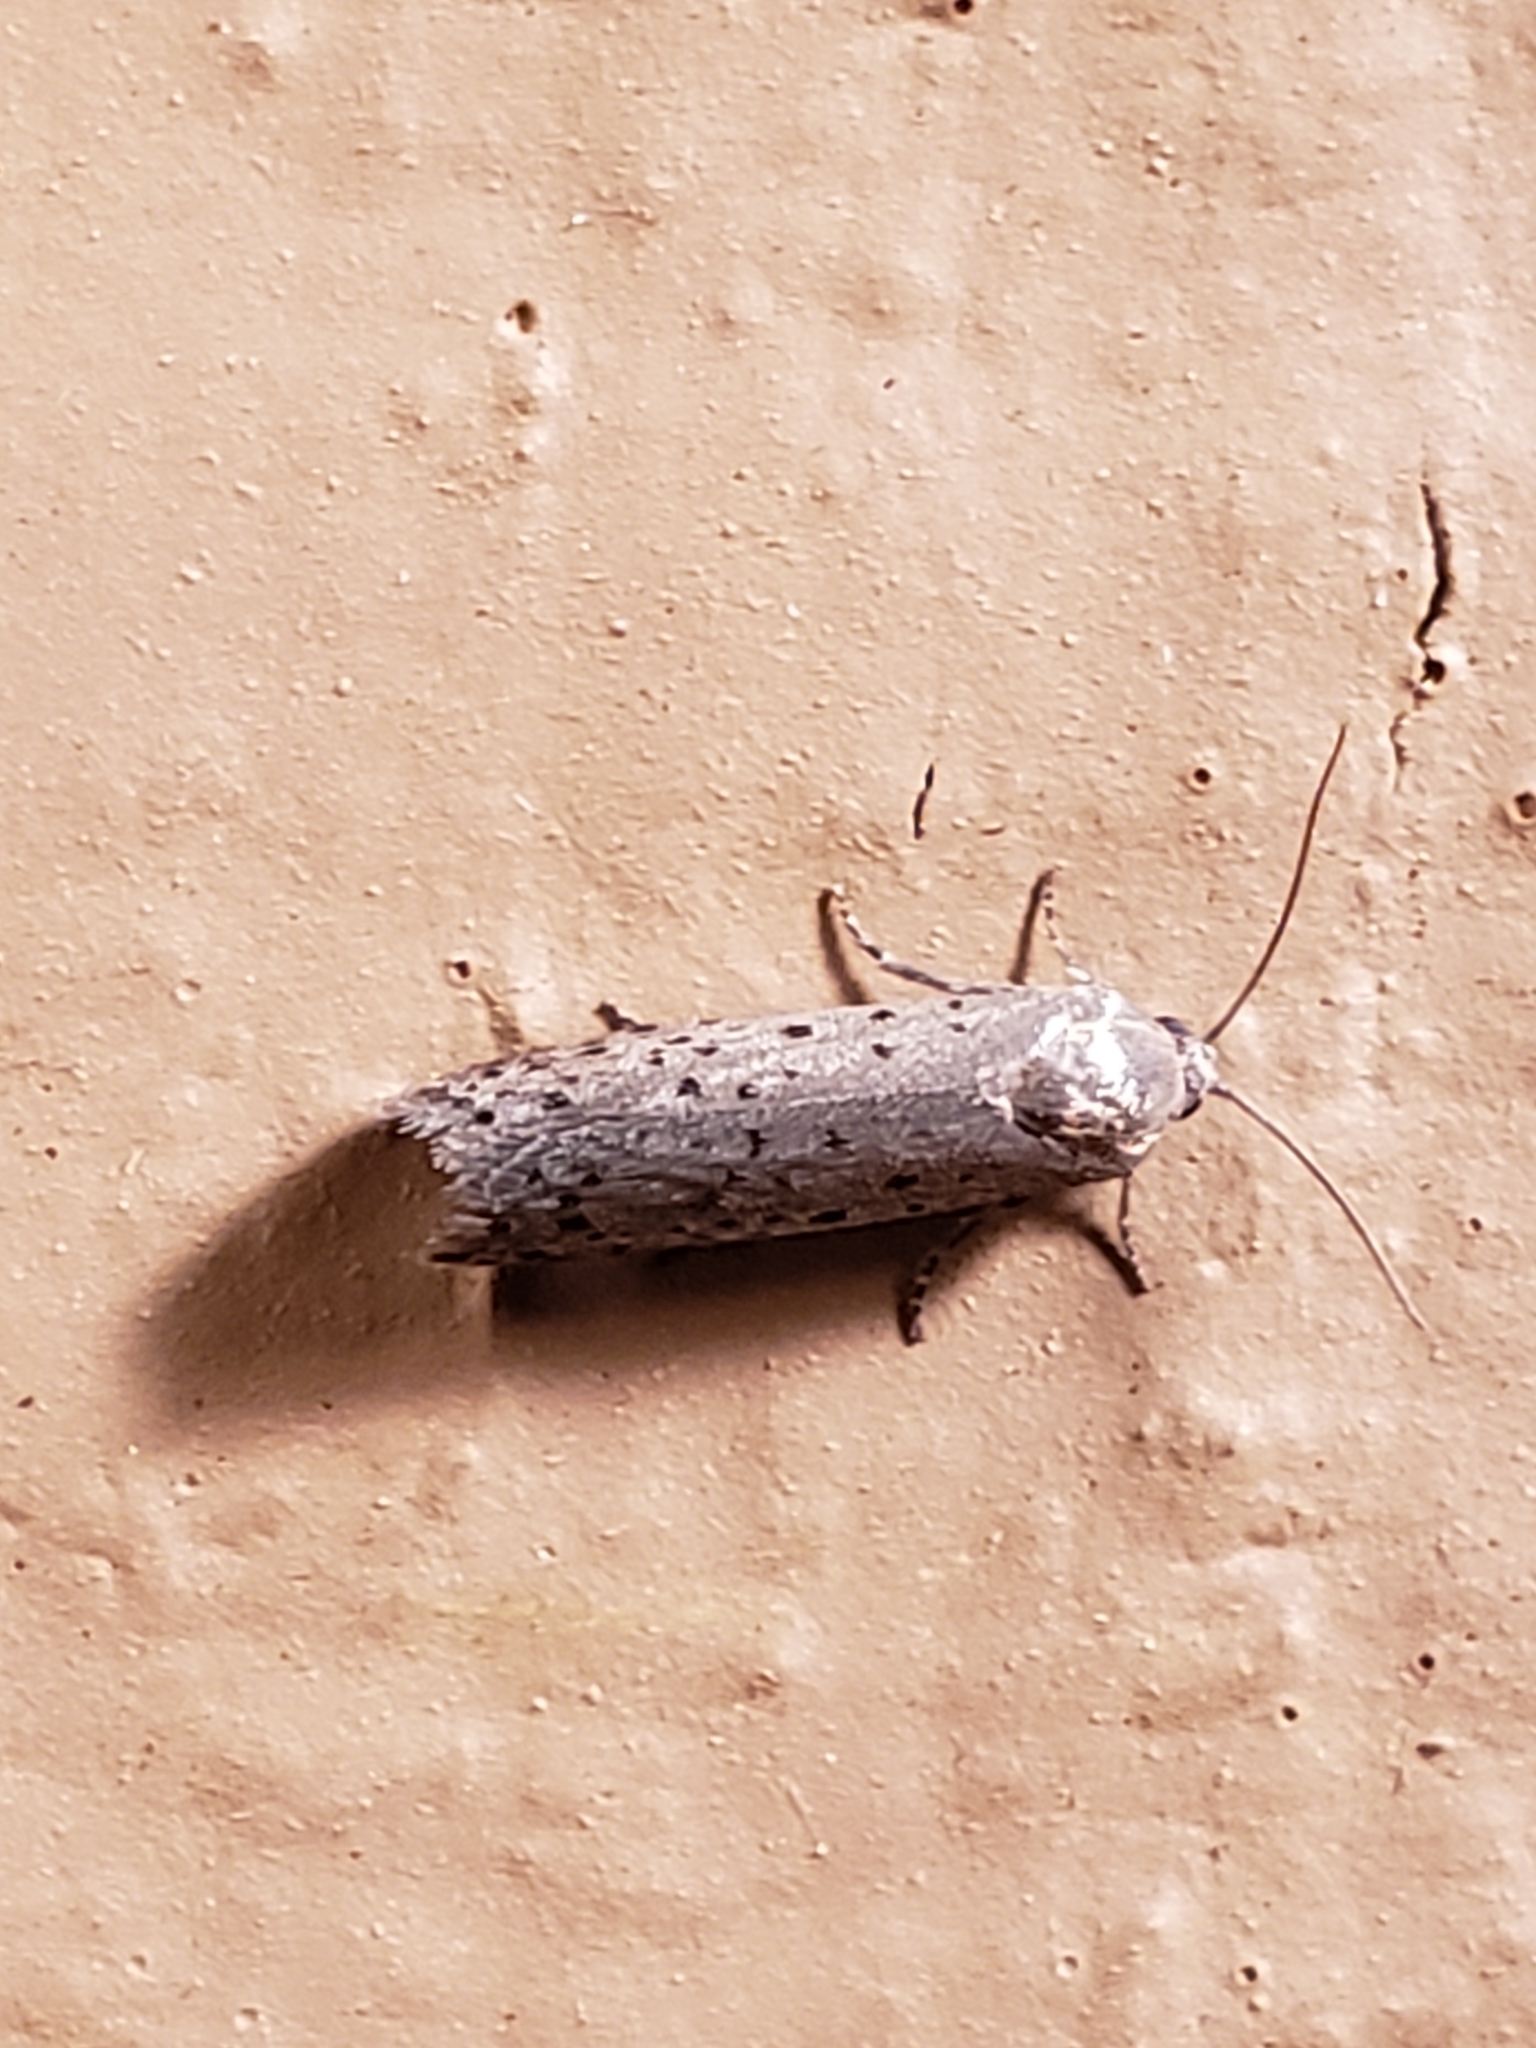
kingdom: Animalia
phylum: Arthropoda
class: Insecta
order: Lepidoptera
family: Galacticidae
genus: Homadaula
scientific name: Homadaula anisocentra
